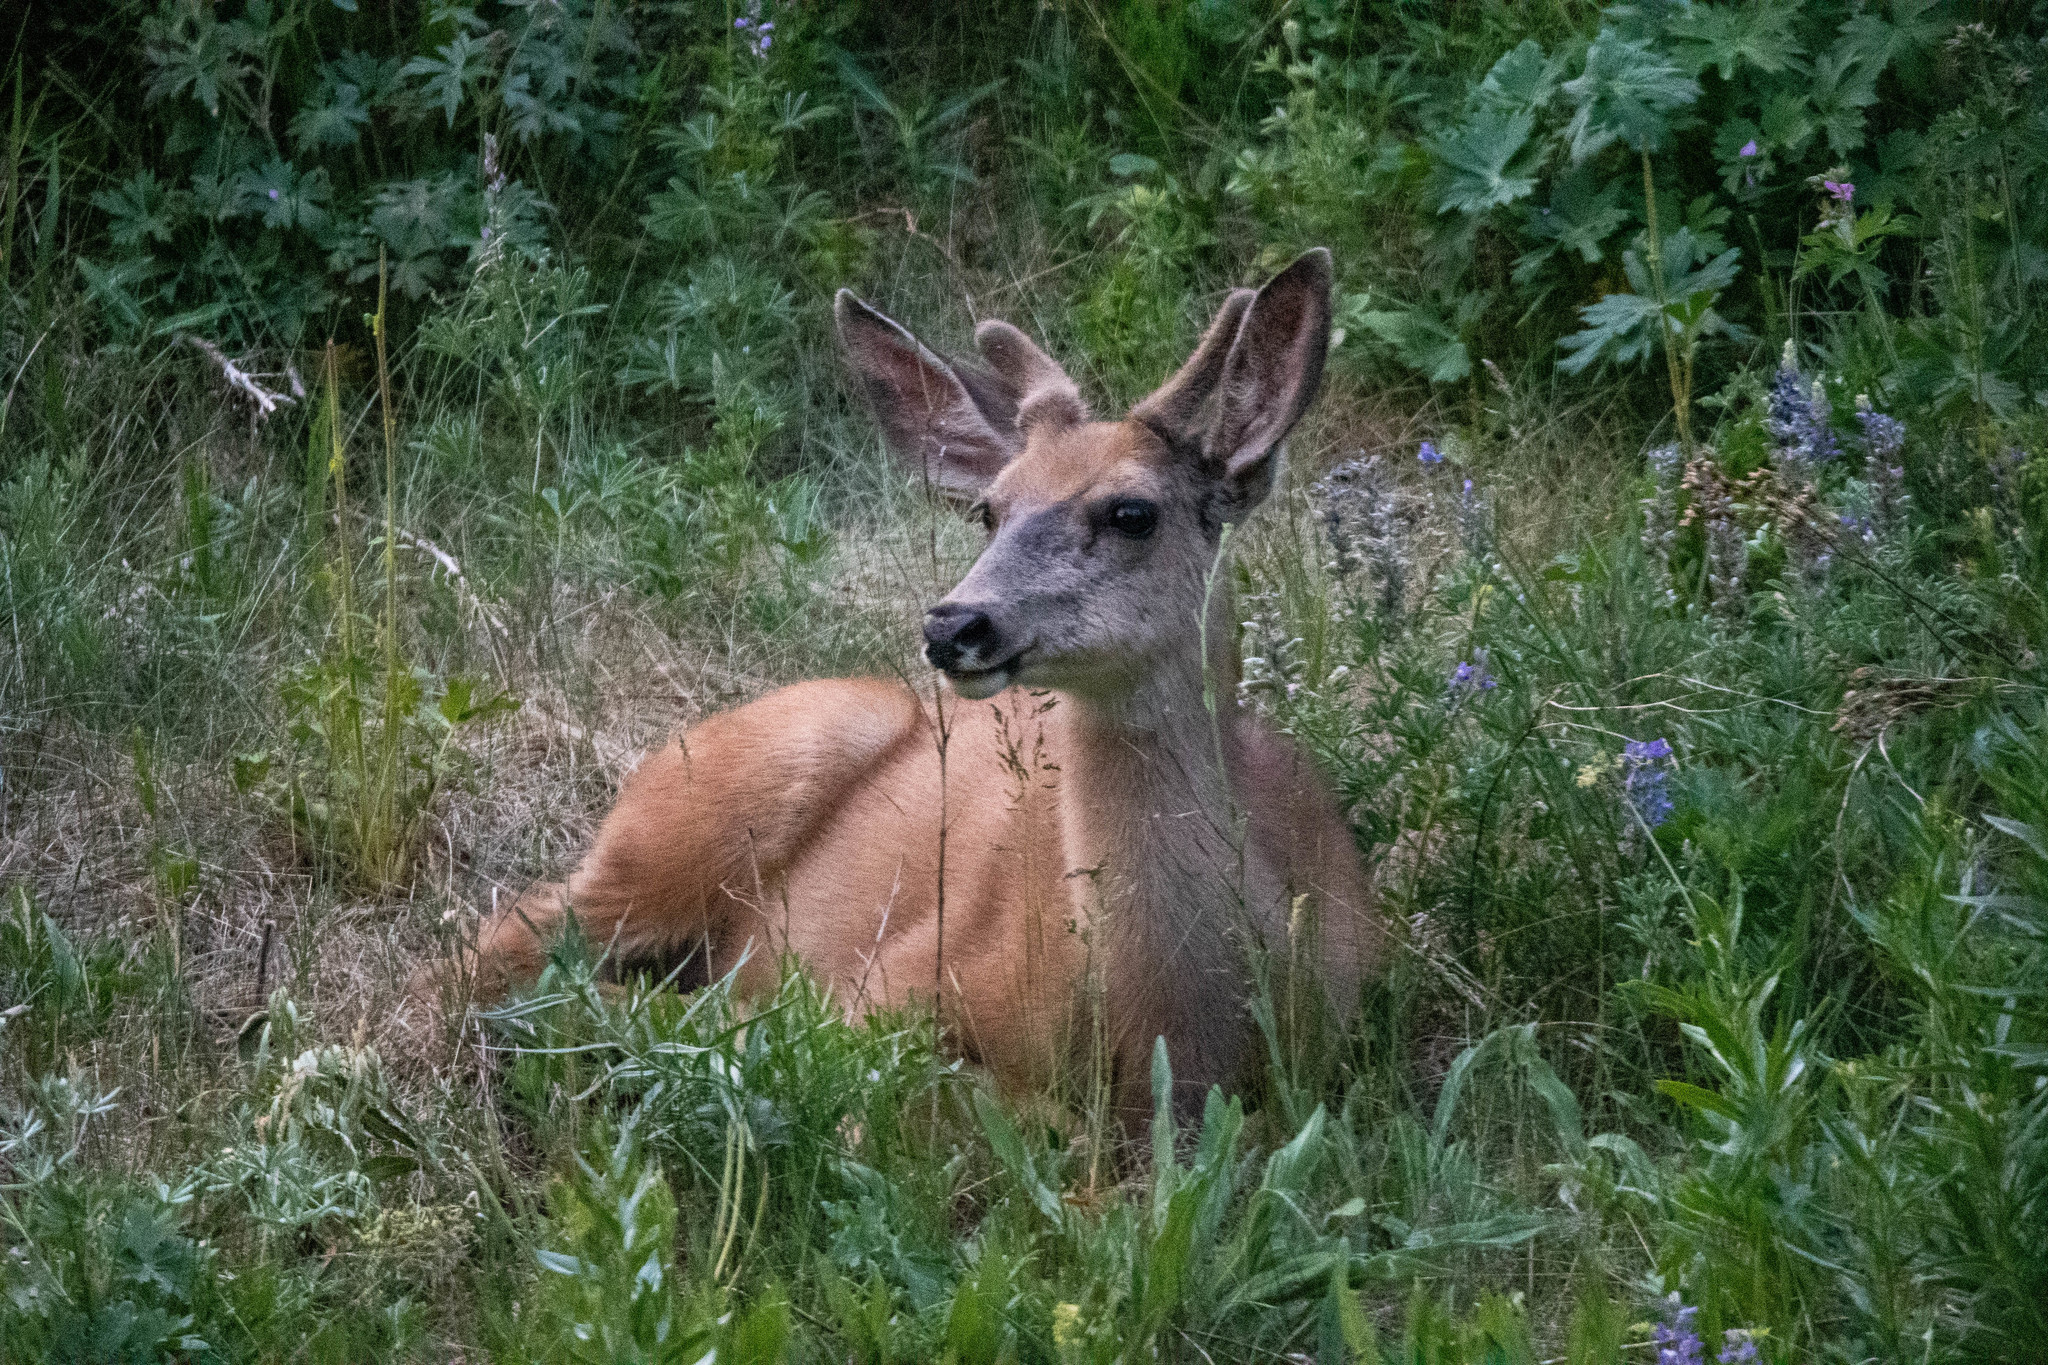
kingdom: Animalia
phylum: Chordata
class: Mammalia
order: Artiodactyla
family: Cervidae
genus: Odocoileus
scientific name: Odocoileus hemionus
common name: Mule deer
